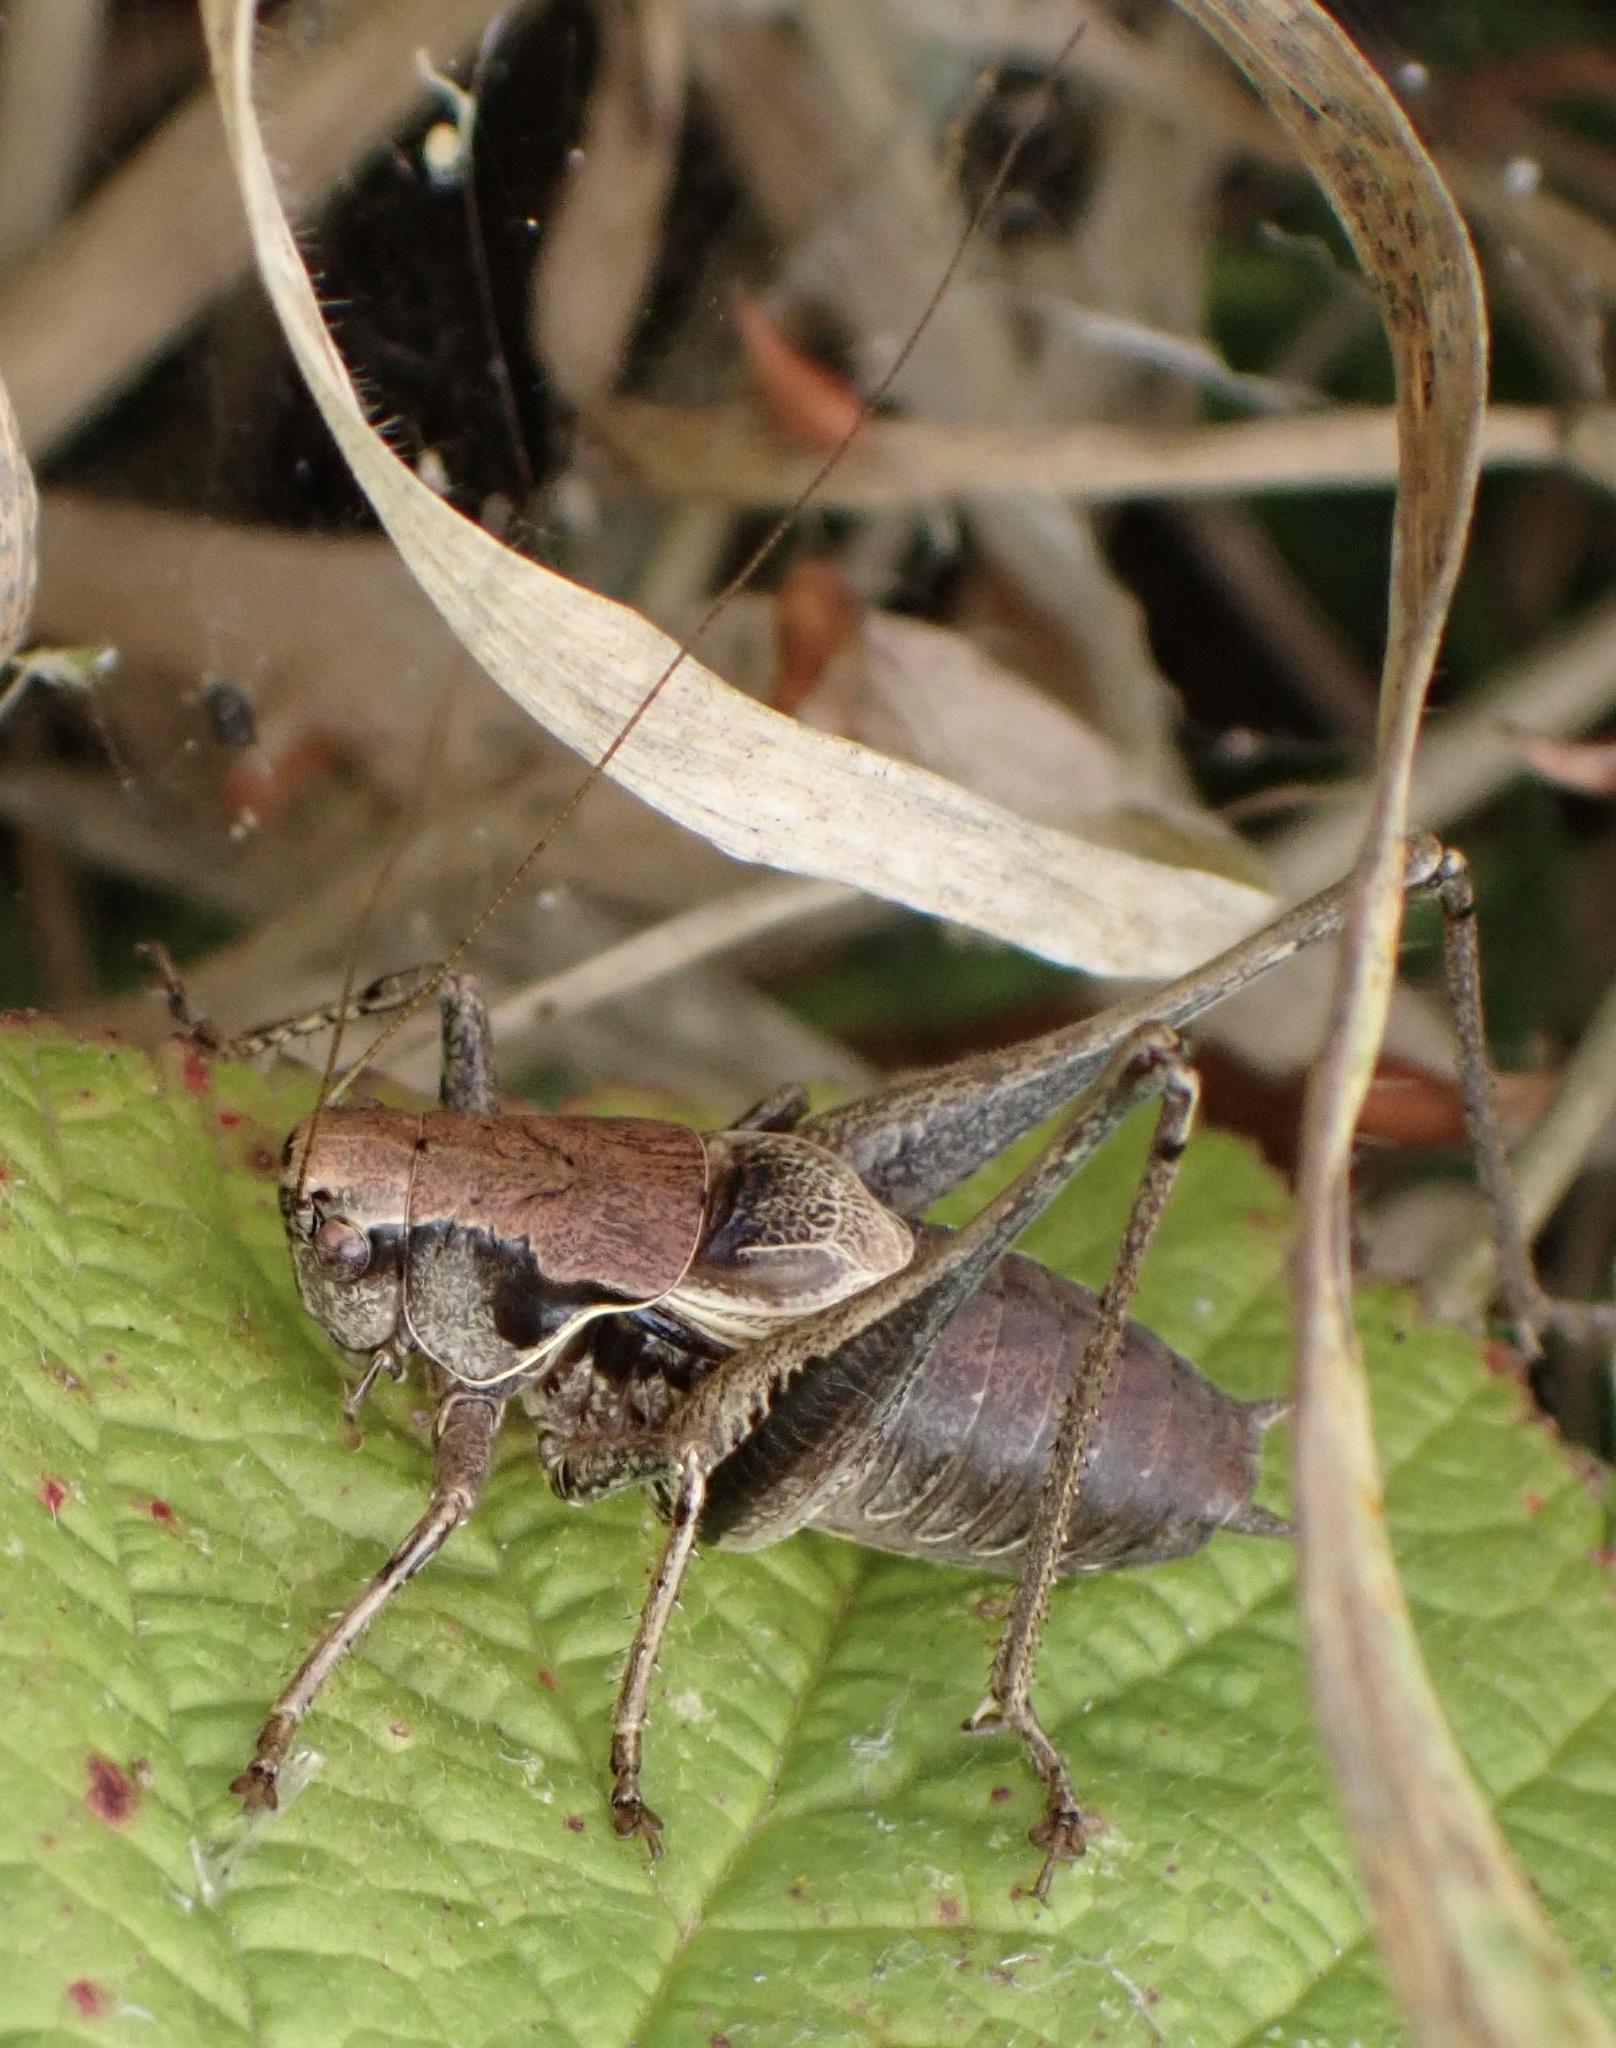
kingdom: Animalia
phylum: Arthropoda
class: Insecta
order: Orthoptera
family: Tettigoniidae
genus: Pholidoptera
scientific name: Pholidoptera griseoaptera
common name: Dark bush-cricket
